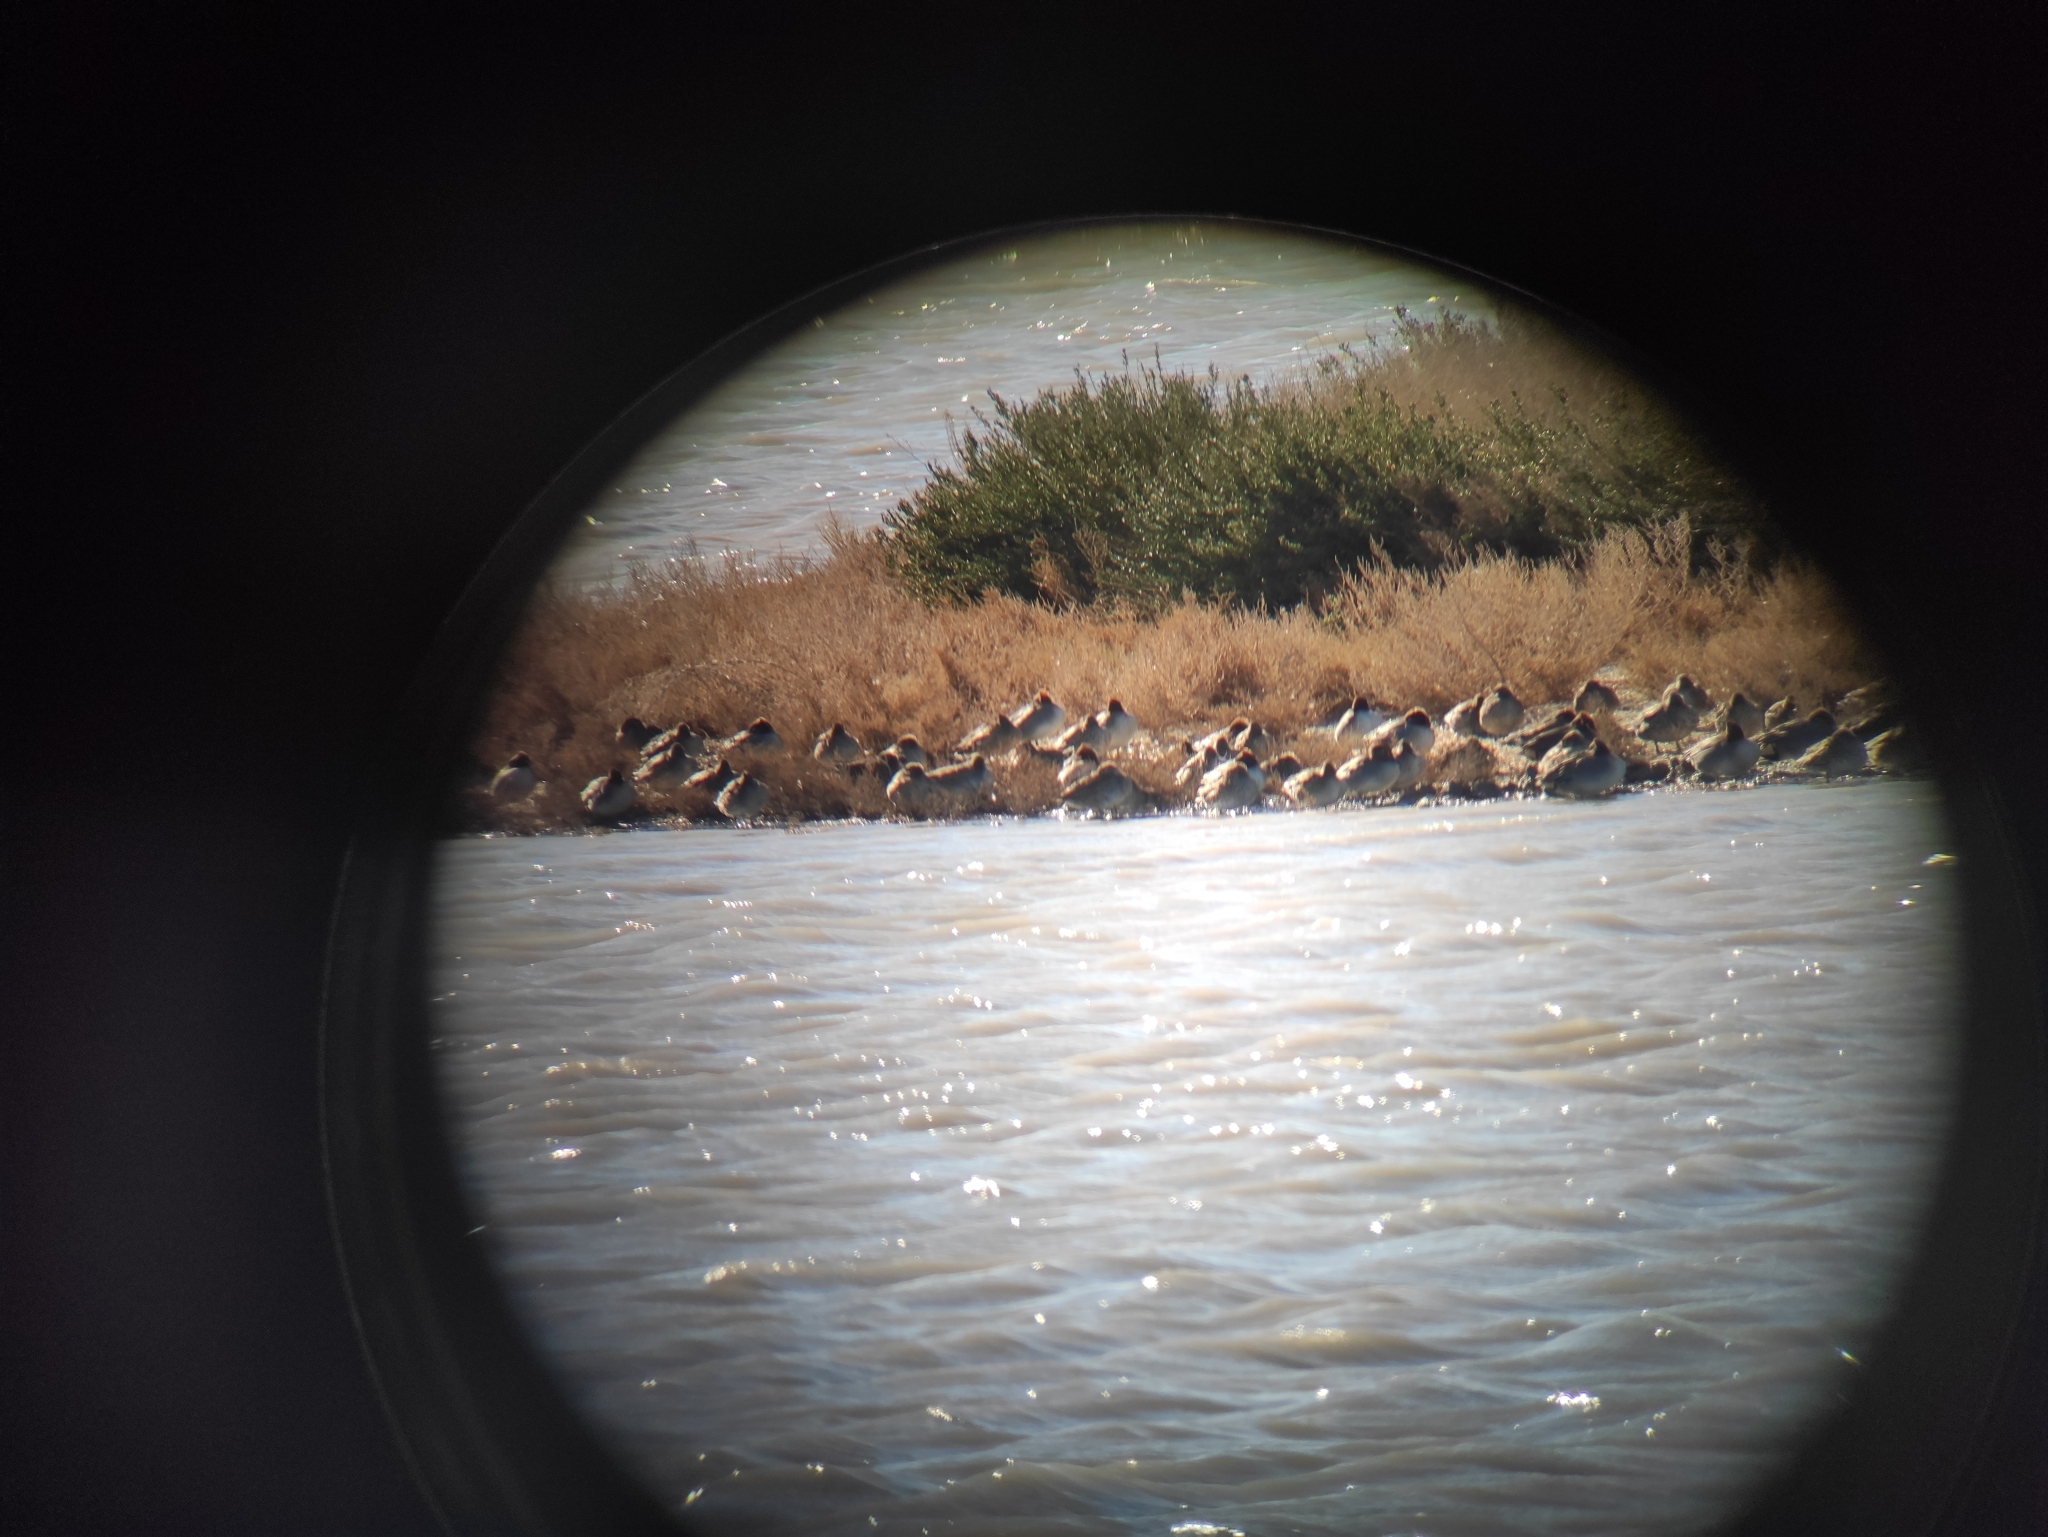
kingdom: Animalia
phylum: Chordata
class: Aves
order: Anseriformes
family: Anatidae
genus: Anas
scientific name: Anas crecca
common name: Eurasian teal
